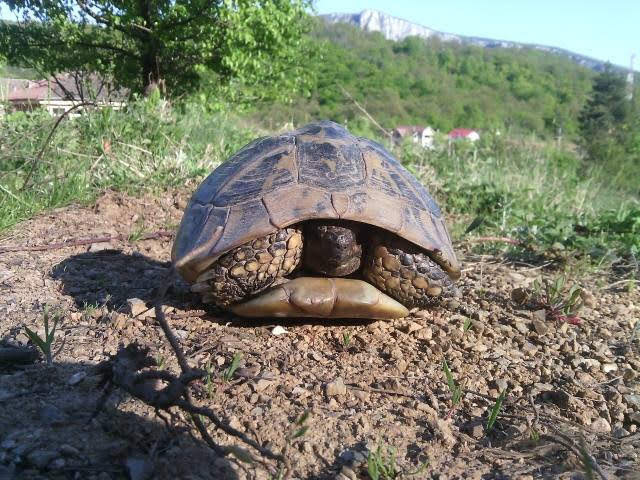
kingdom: Animalia
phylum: Chordata
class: Testudines
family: Testudinidae
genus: Testudo
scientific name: Testudo hermanni
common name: Hermann's tortoise
